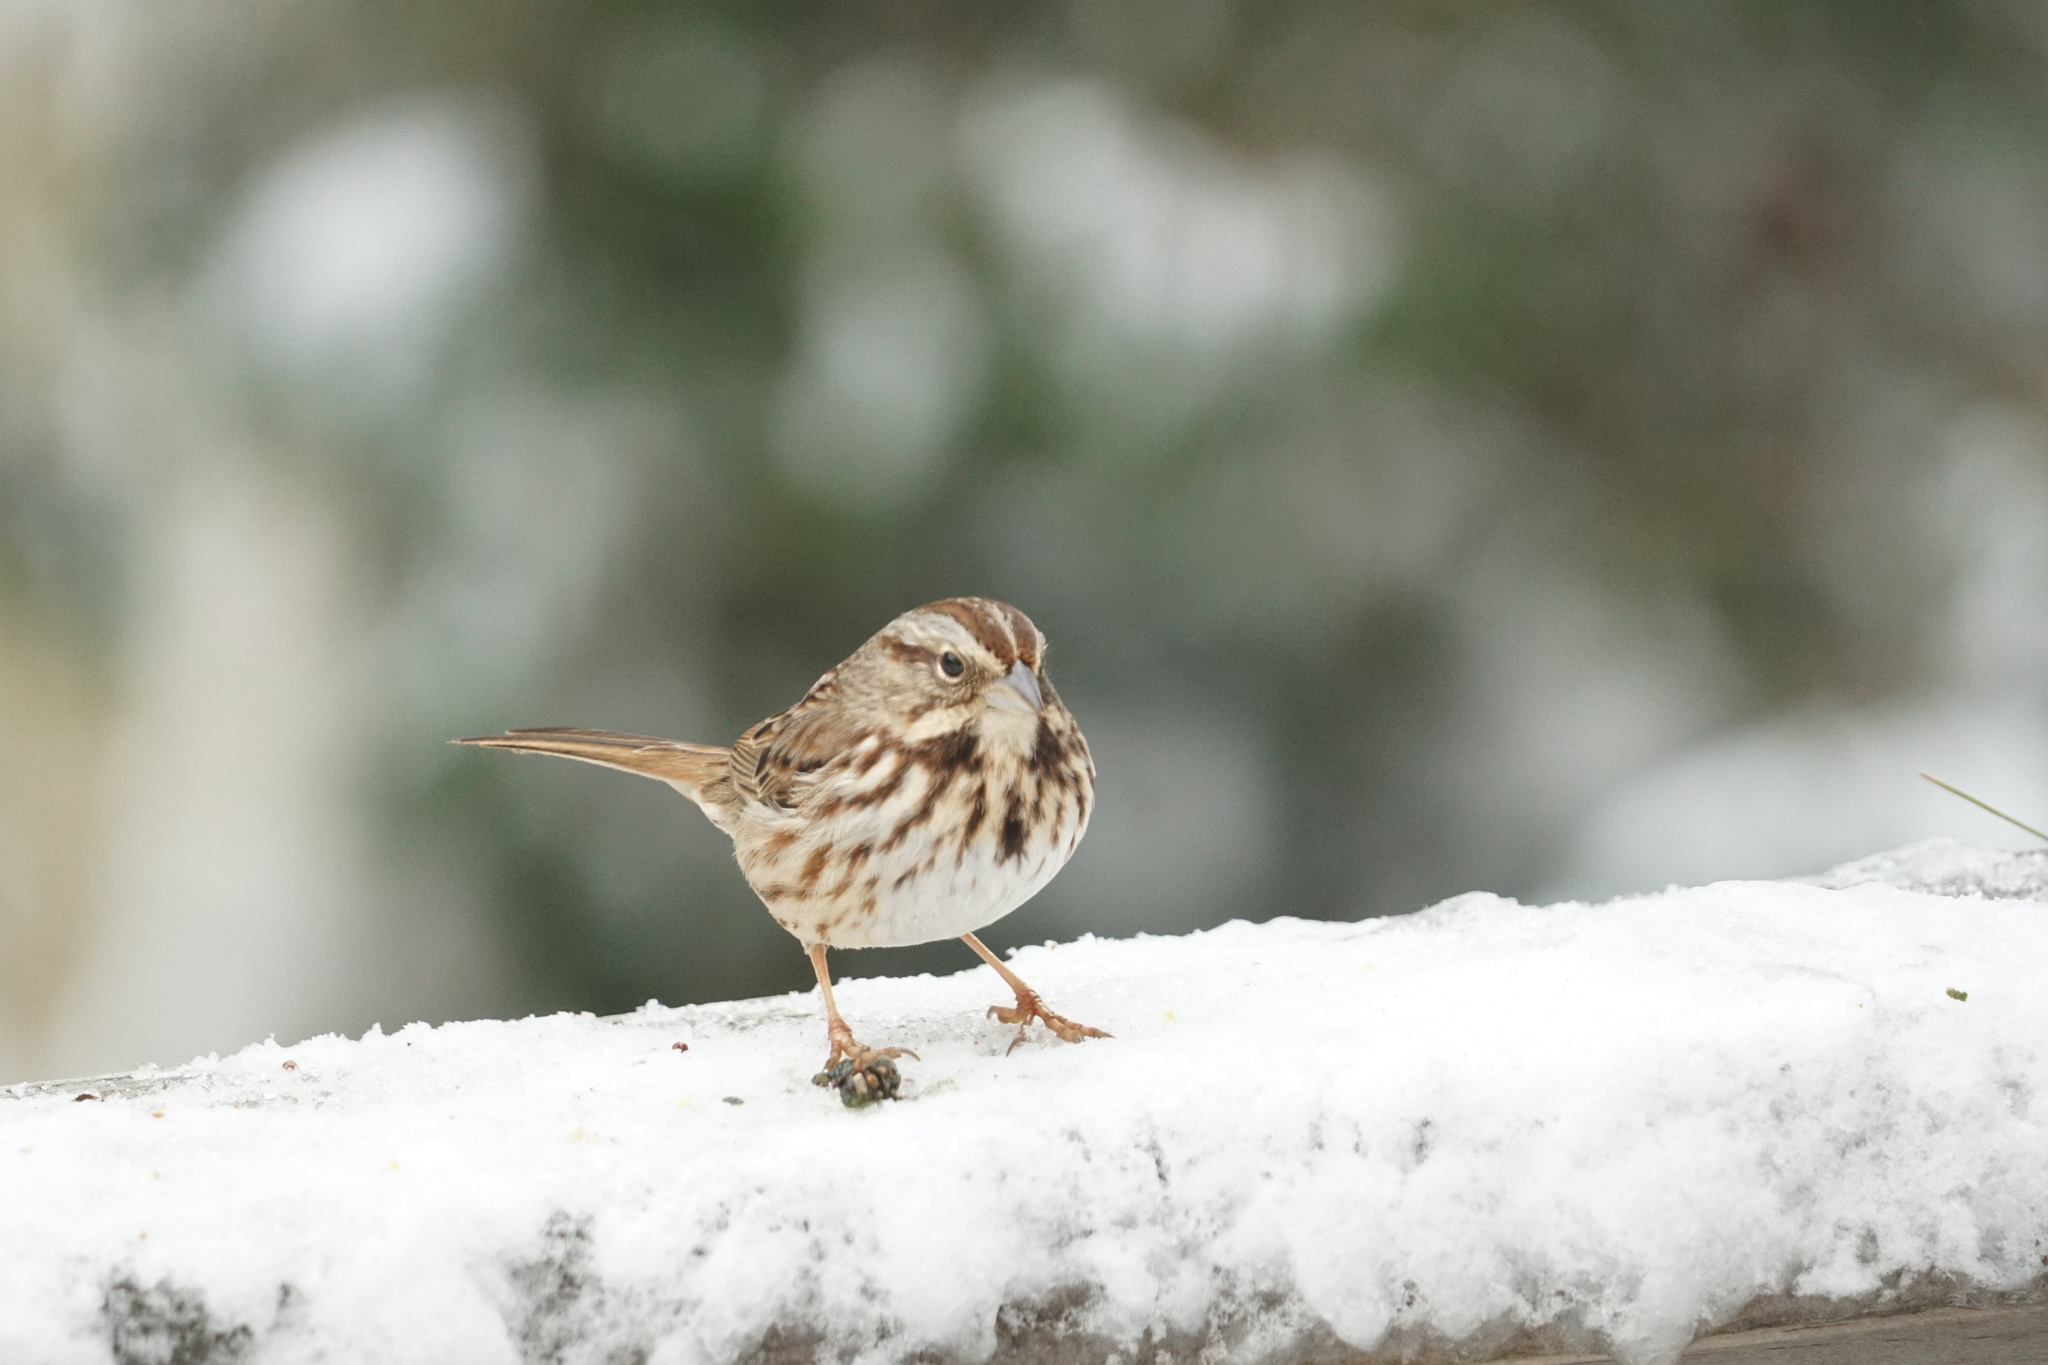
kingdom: Animalia
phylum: Chordata
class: Aves
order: Passeriformes
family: Passerellidae
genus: Melospiza
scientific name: Melospiza melodia
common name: Song sparrow
